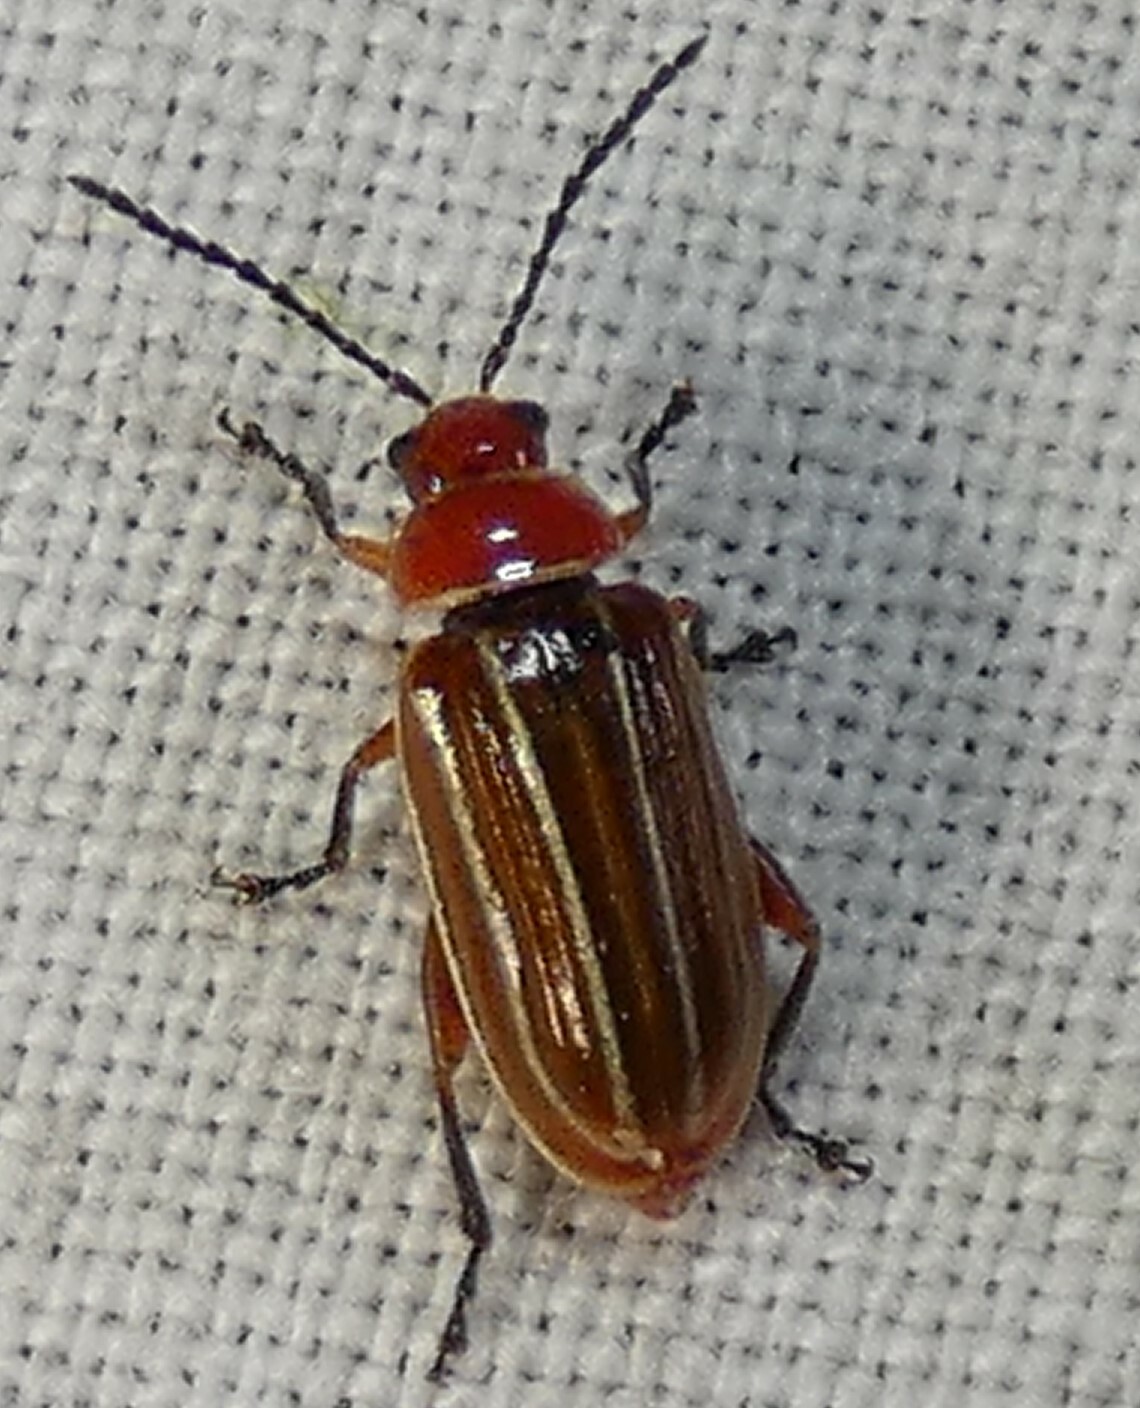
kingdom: Animalia
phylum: Arthropoda
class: Insecta
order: Coleoptera
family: Chrysomelidae
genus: Disonycha
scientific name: Disonycha conjugata
